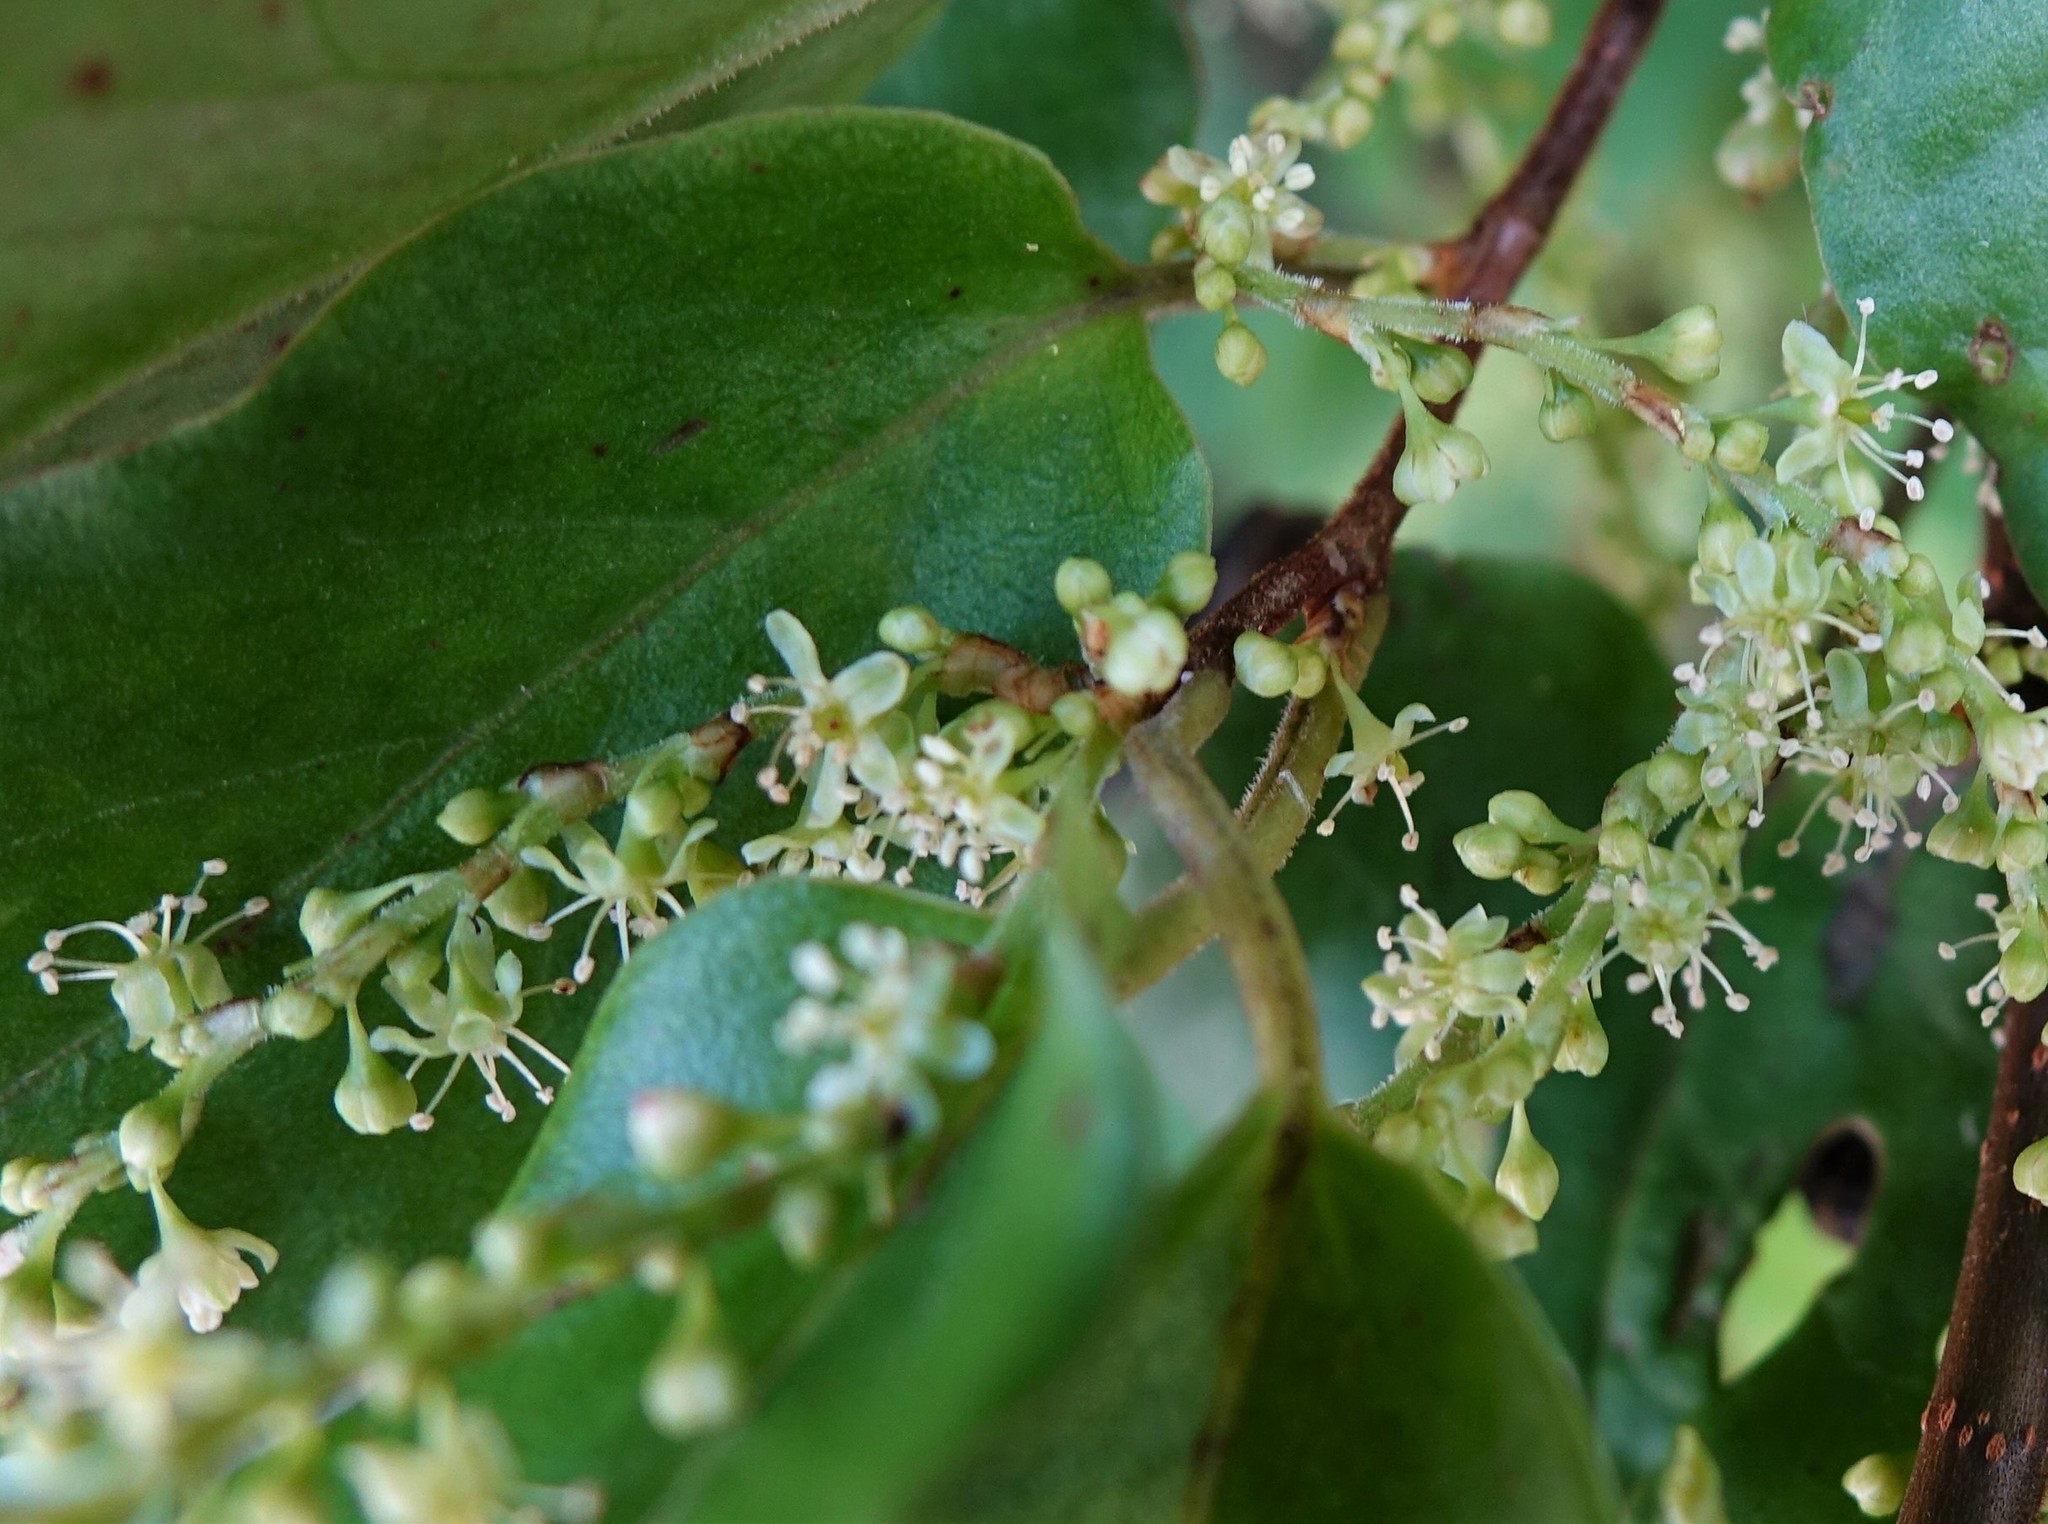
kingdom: Plantae
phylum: Tracheophyta
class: Magnoliopsida
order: Caryophyllales
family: Polygonaceae
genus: Muehlenbeckia
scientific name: Muehlenbeckia australis
